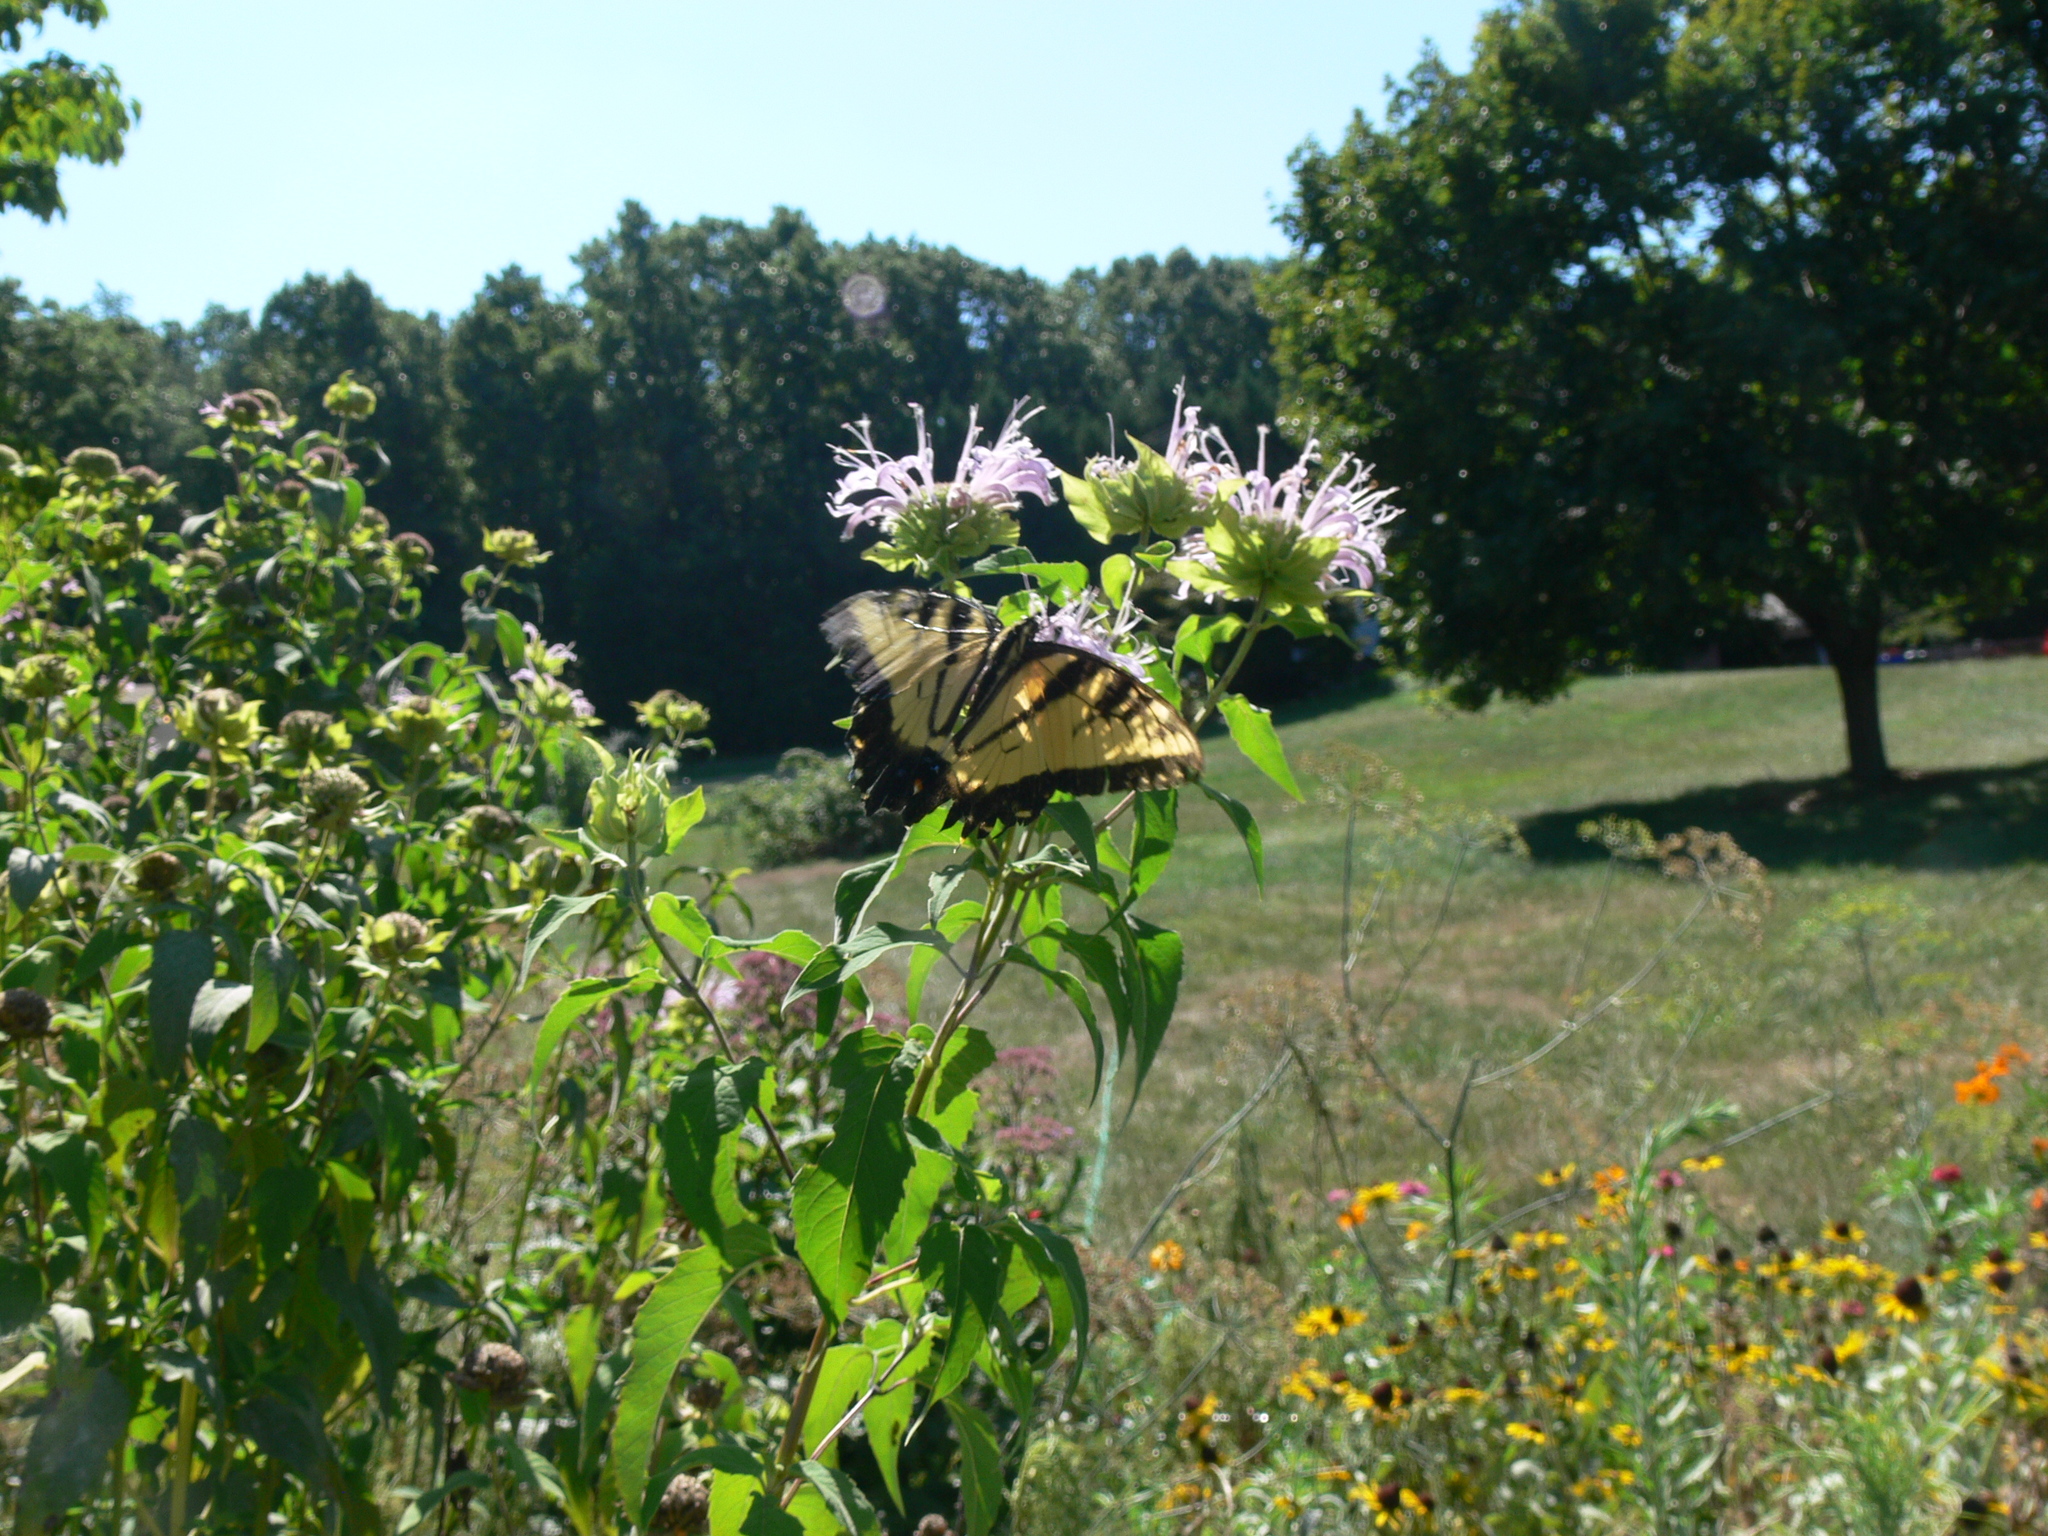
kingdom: Animalia
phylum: Arthropoda
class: Insecta
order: Lepidoptera
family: Papilionidae
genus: Papilio
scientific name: Papilio glaucus
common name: Tiger swallowtail
